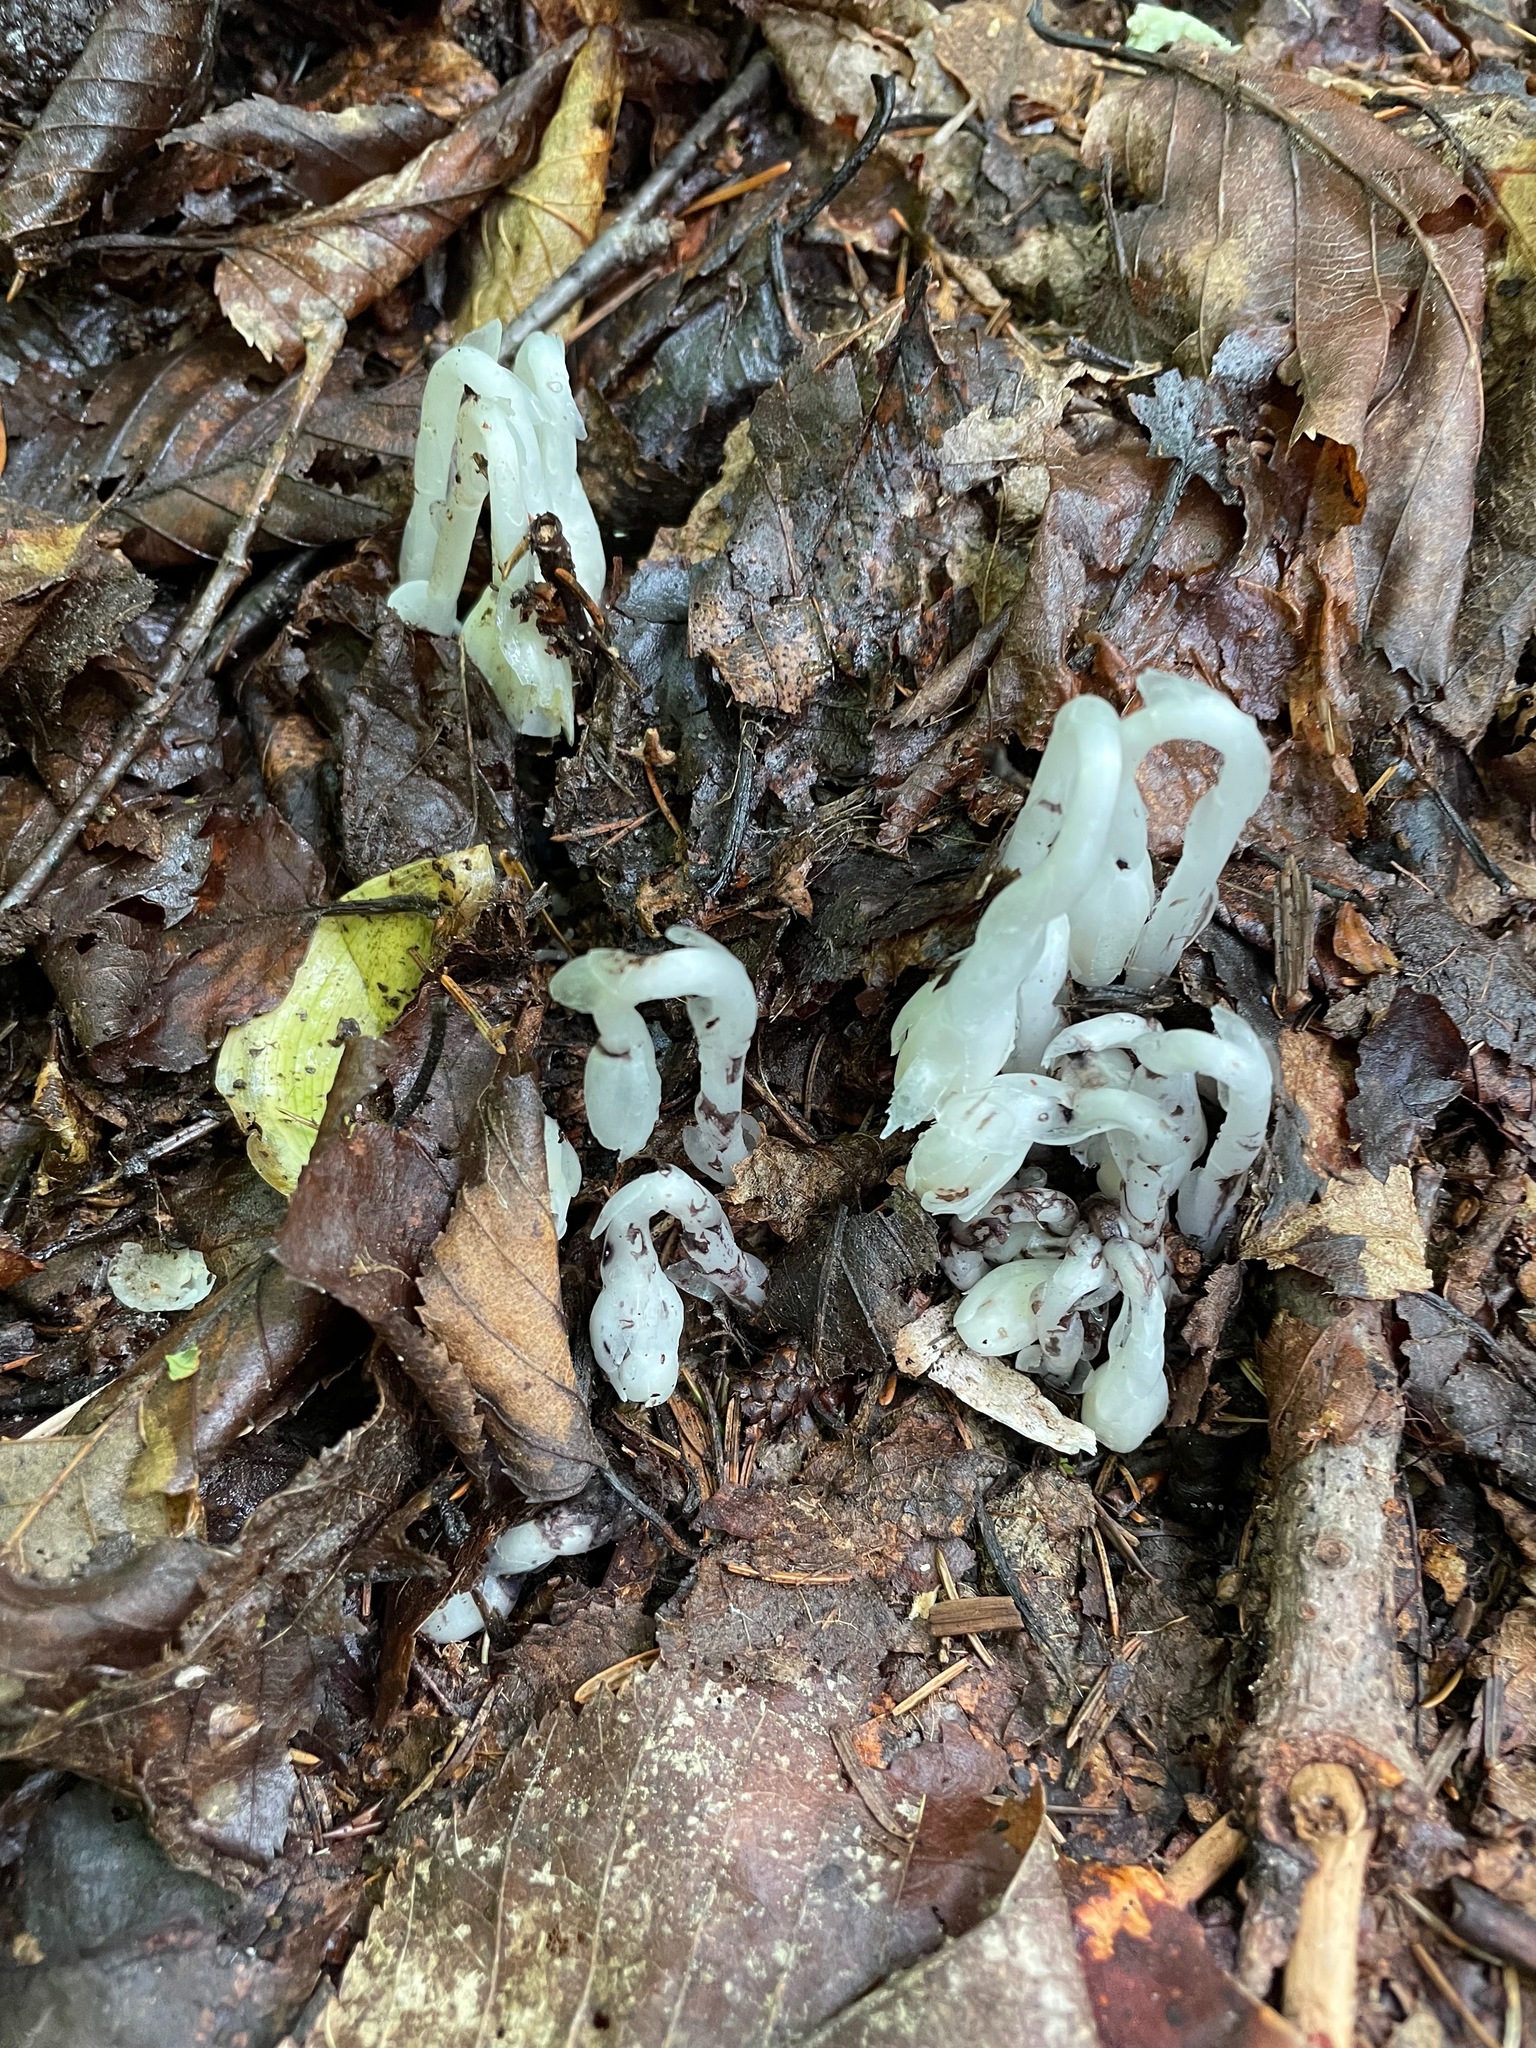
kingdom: Plantae
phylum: Tracheophyta
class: Magnoliopsida
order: Ericales
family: Ericaceae
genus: Monotropa
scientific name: Monotropa uniflora
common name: Convulsion root
